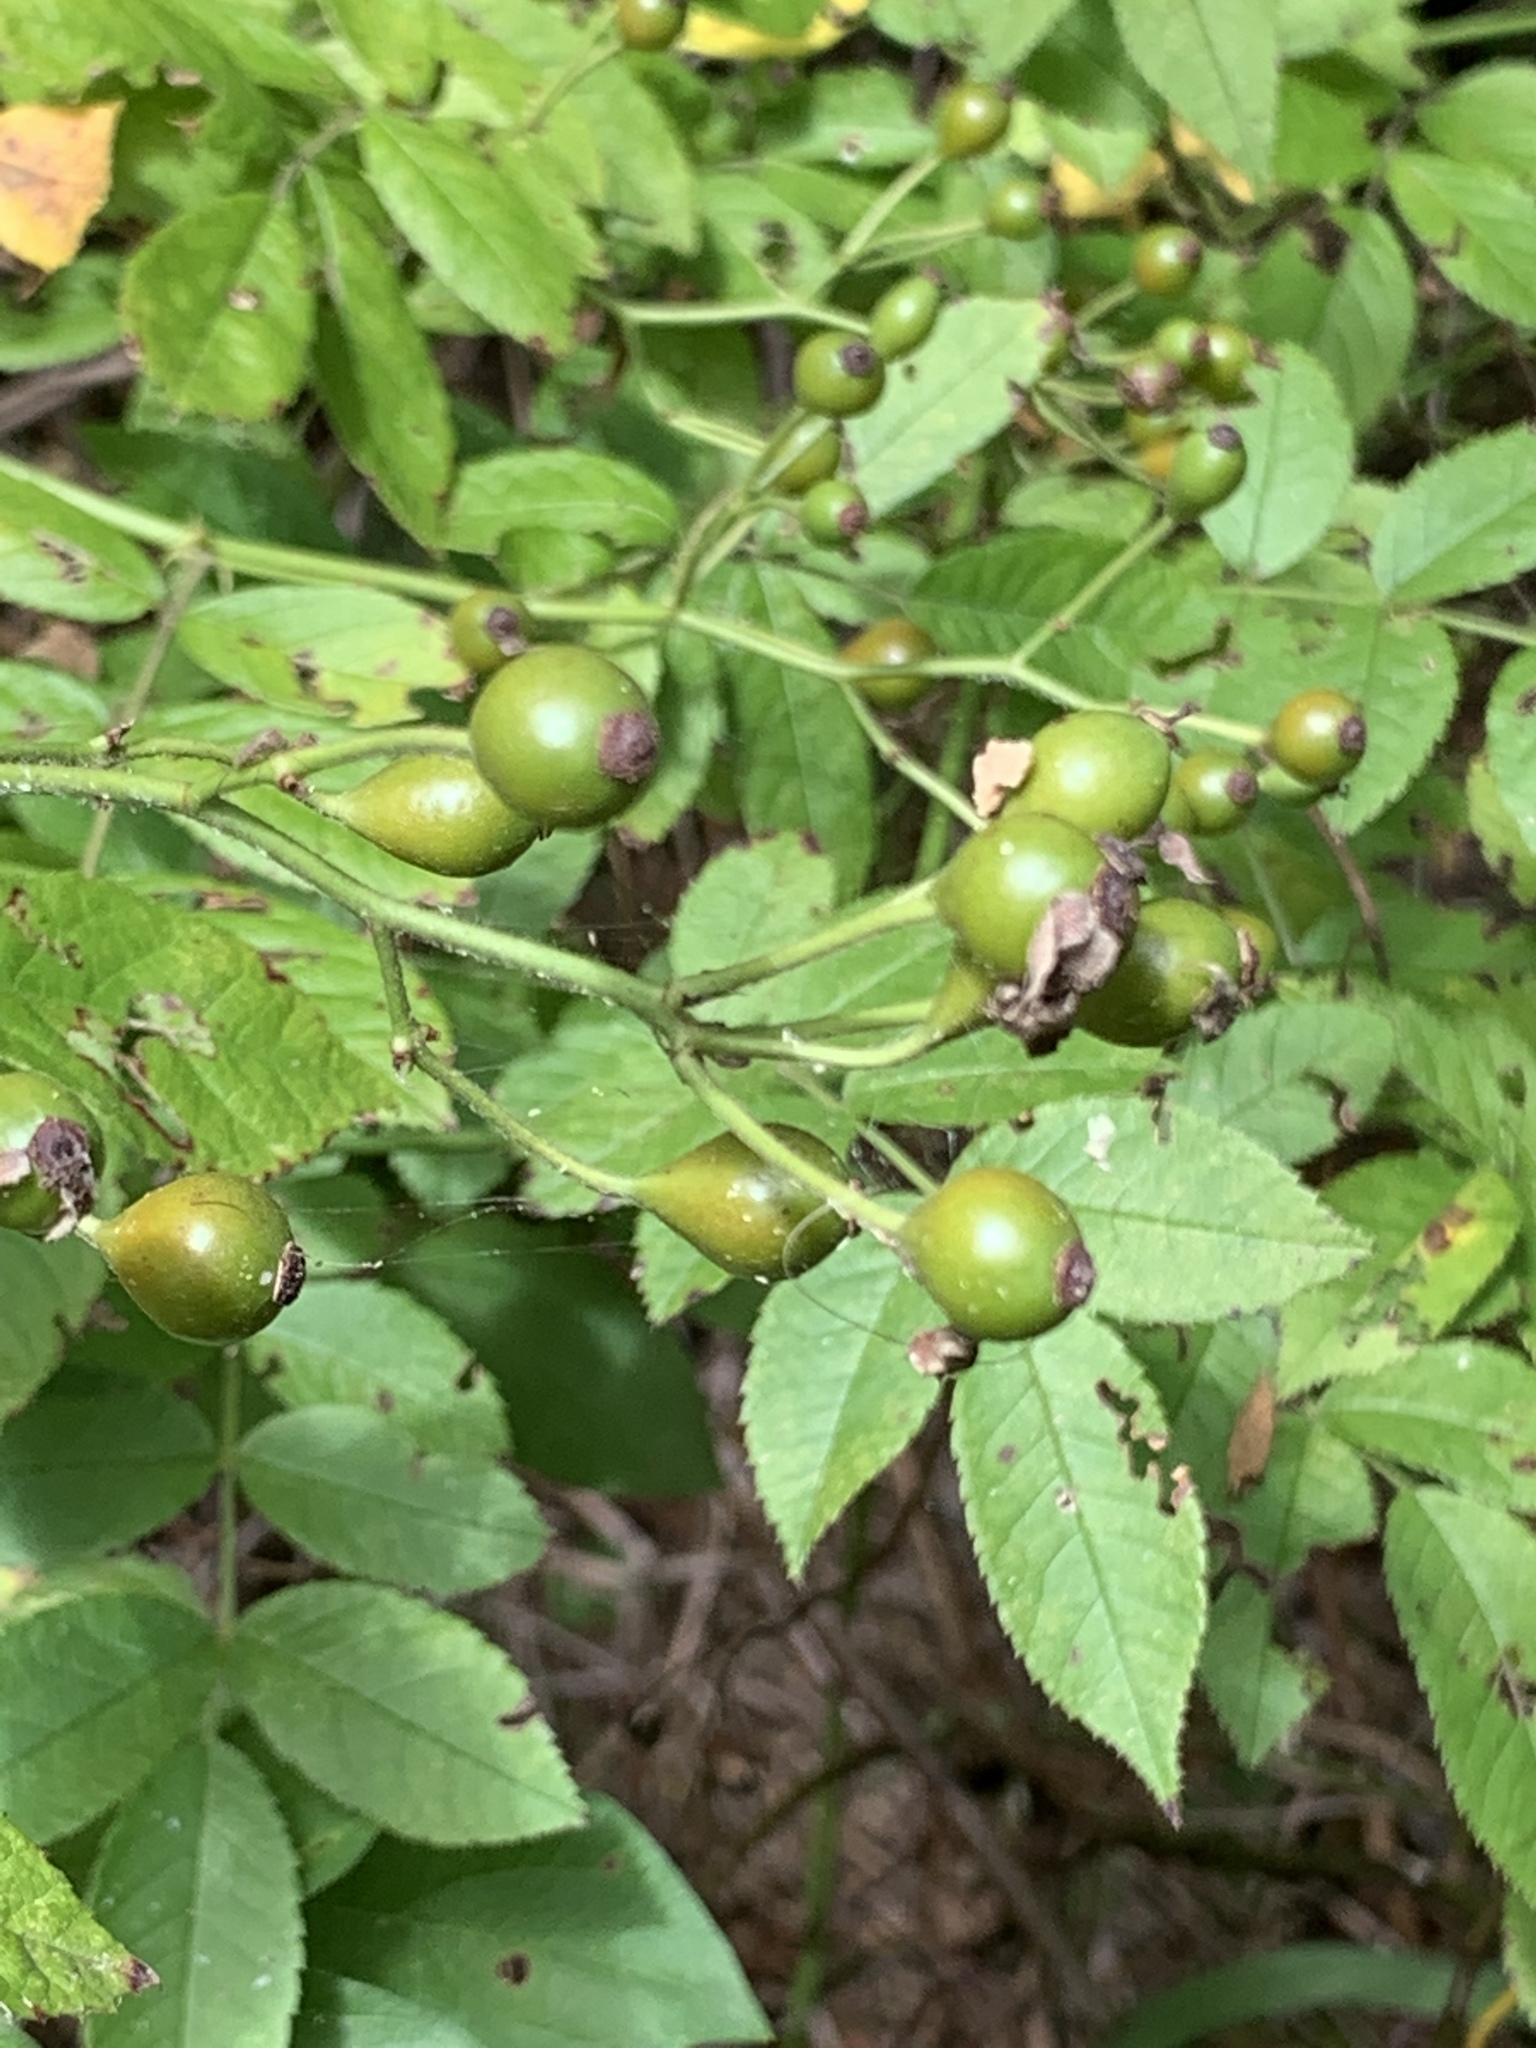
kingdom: Plantae
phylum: Tracheophyta
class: Magnoliopsida
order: Rosales
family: Rosaceae
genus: Rosa
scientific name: Rosa multiflora
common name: Multiflora rose
